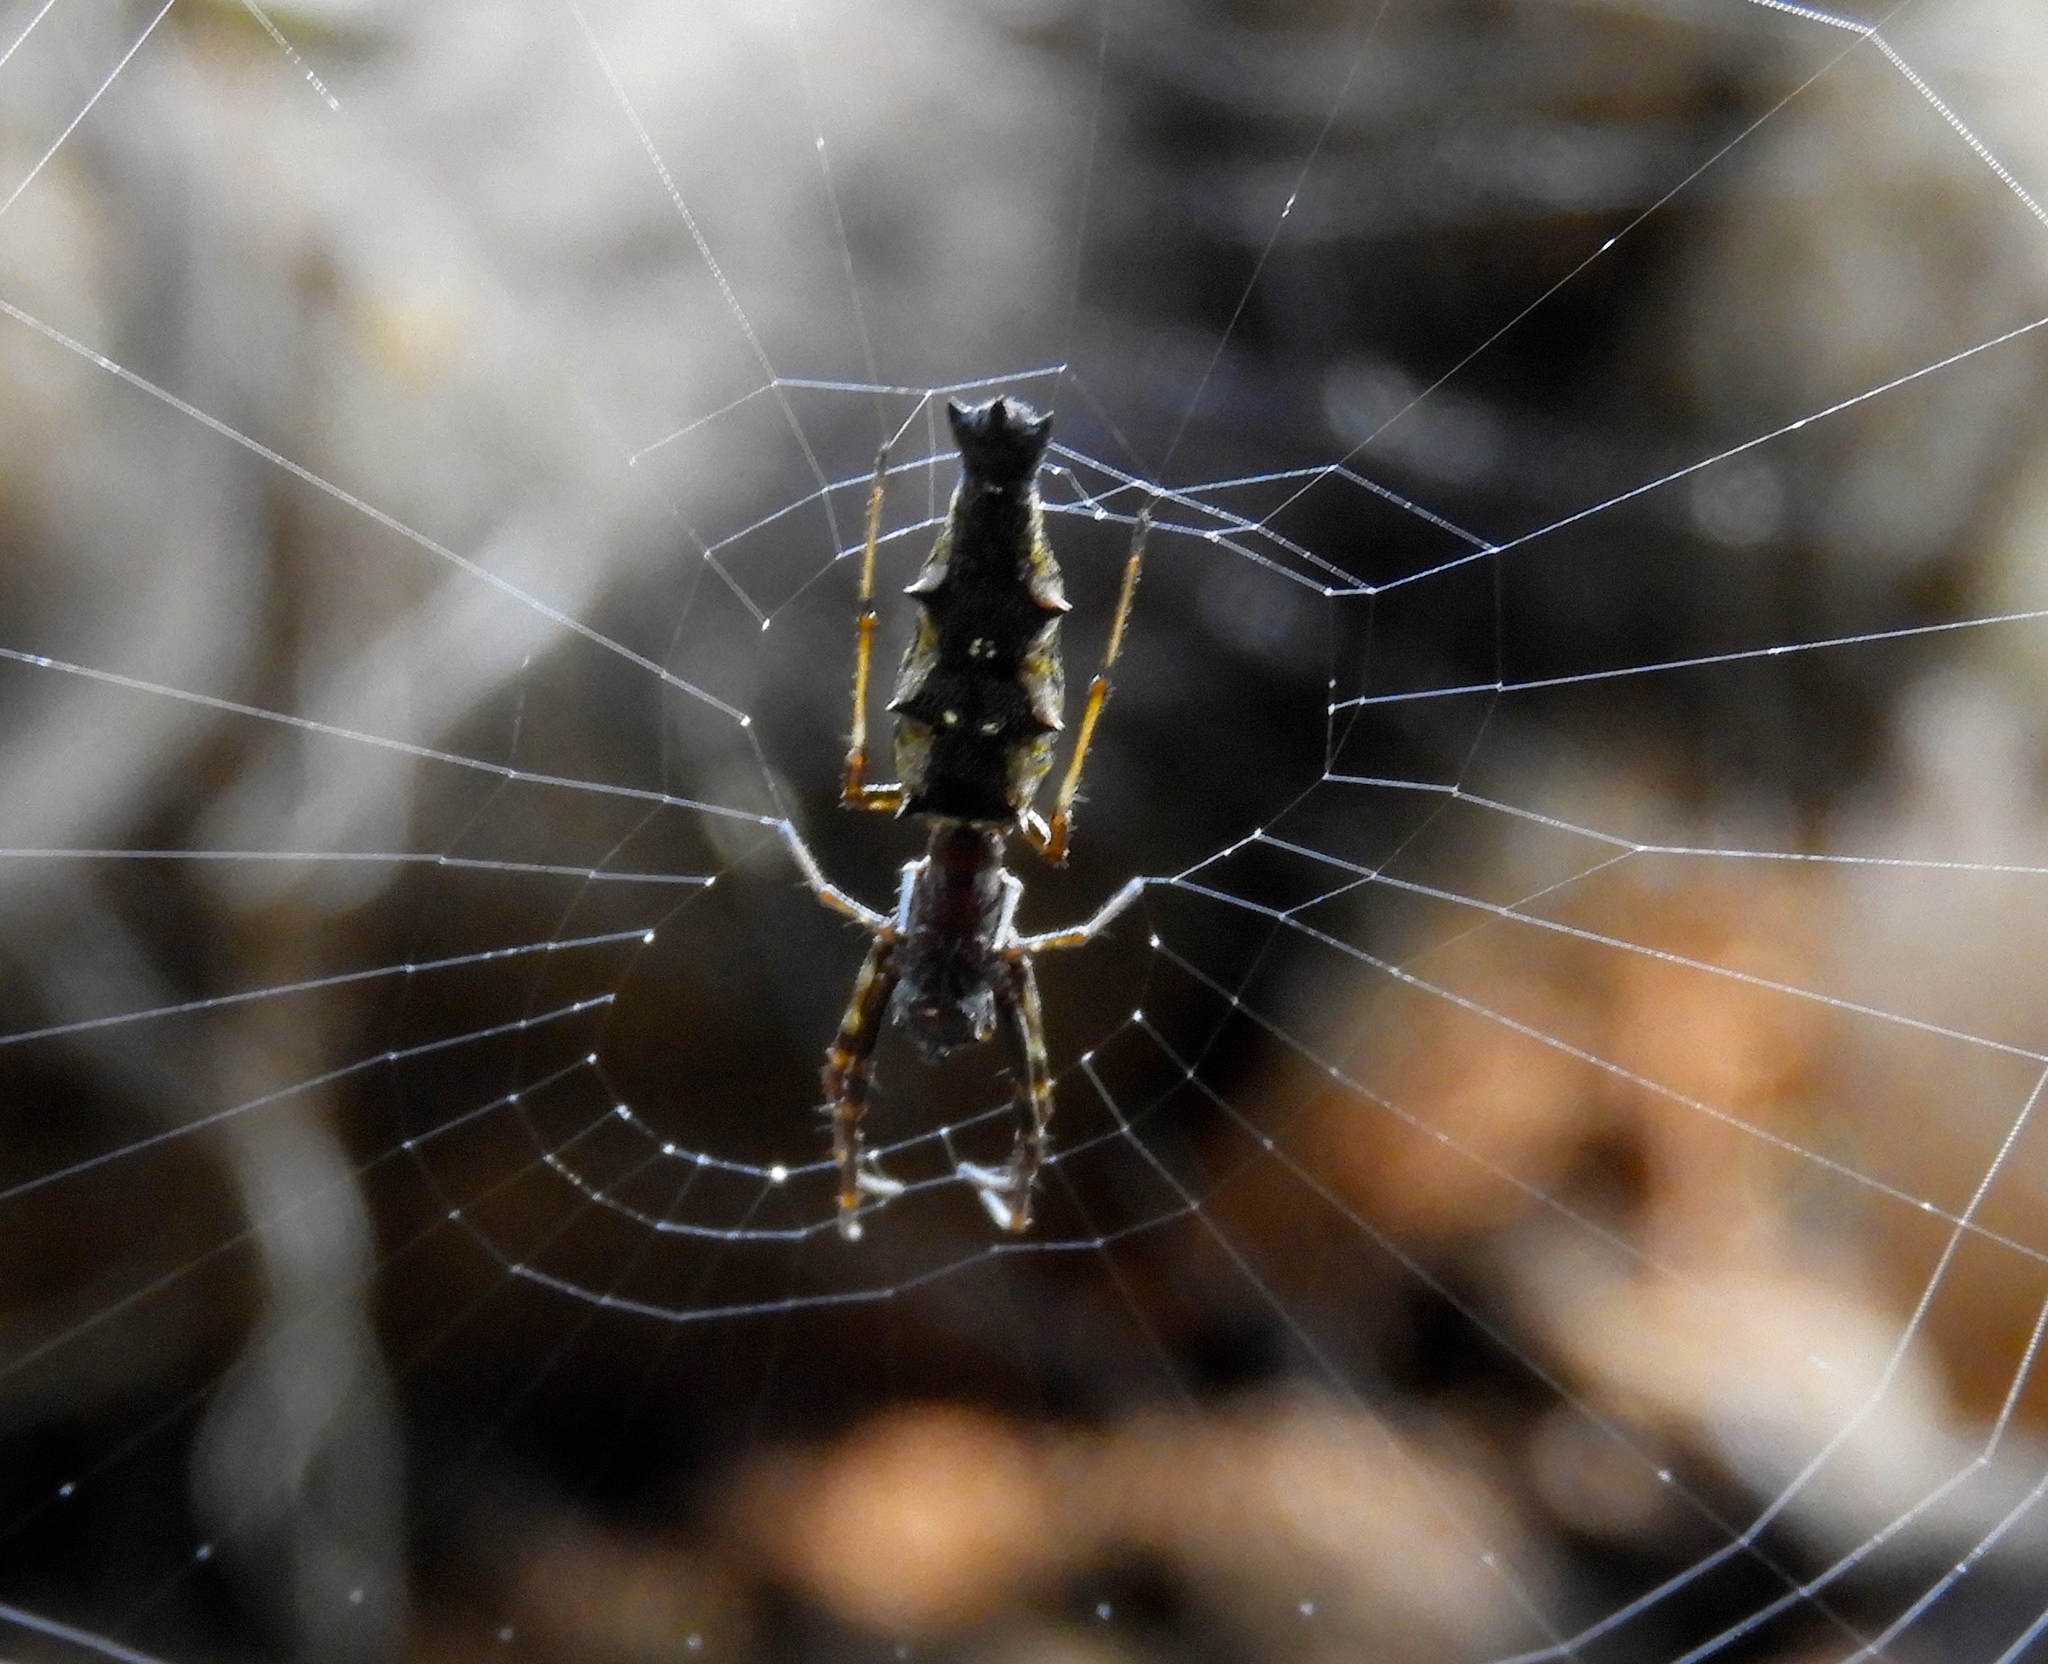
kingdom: Animalia
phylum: Arthropoda
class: Arachnida
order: Araneae
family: Araneidae
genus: Edricus
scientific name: Edricus productus
